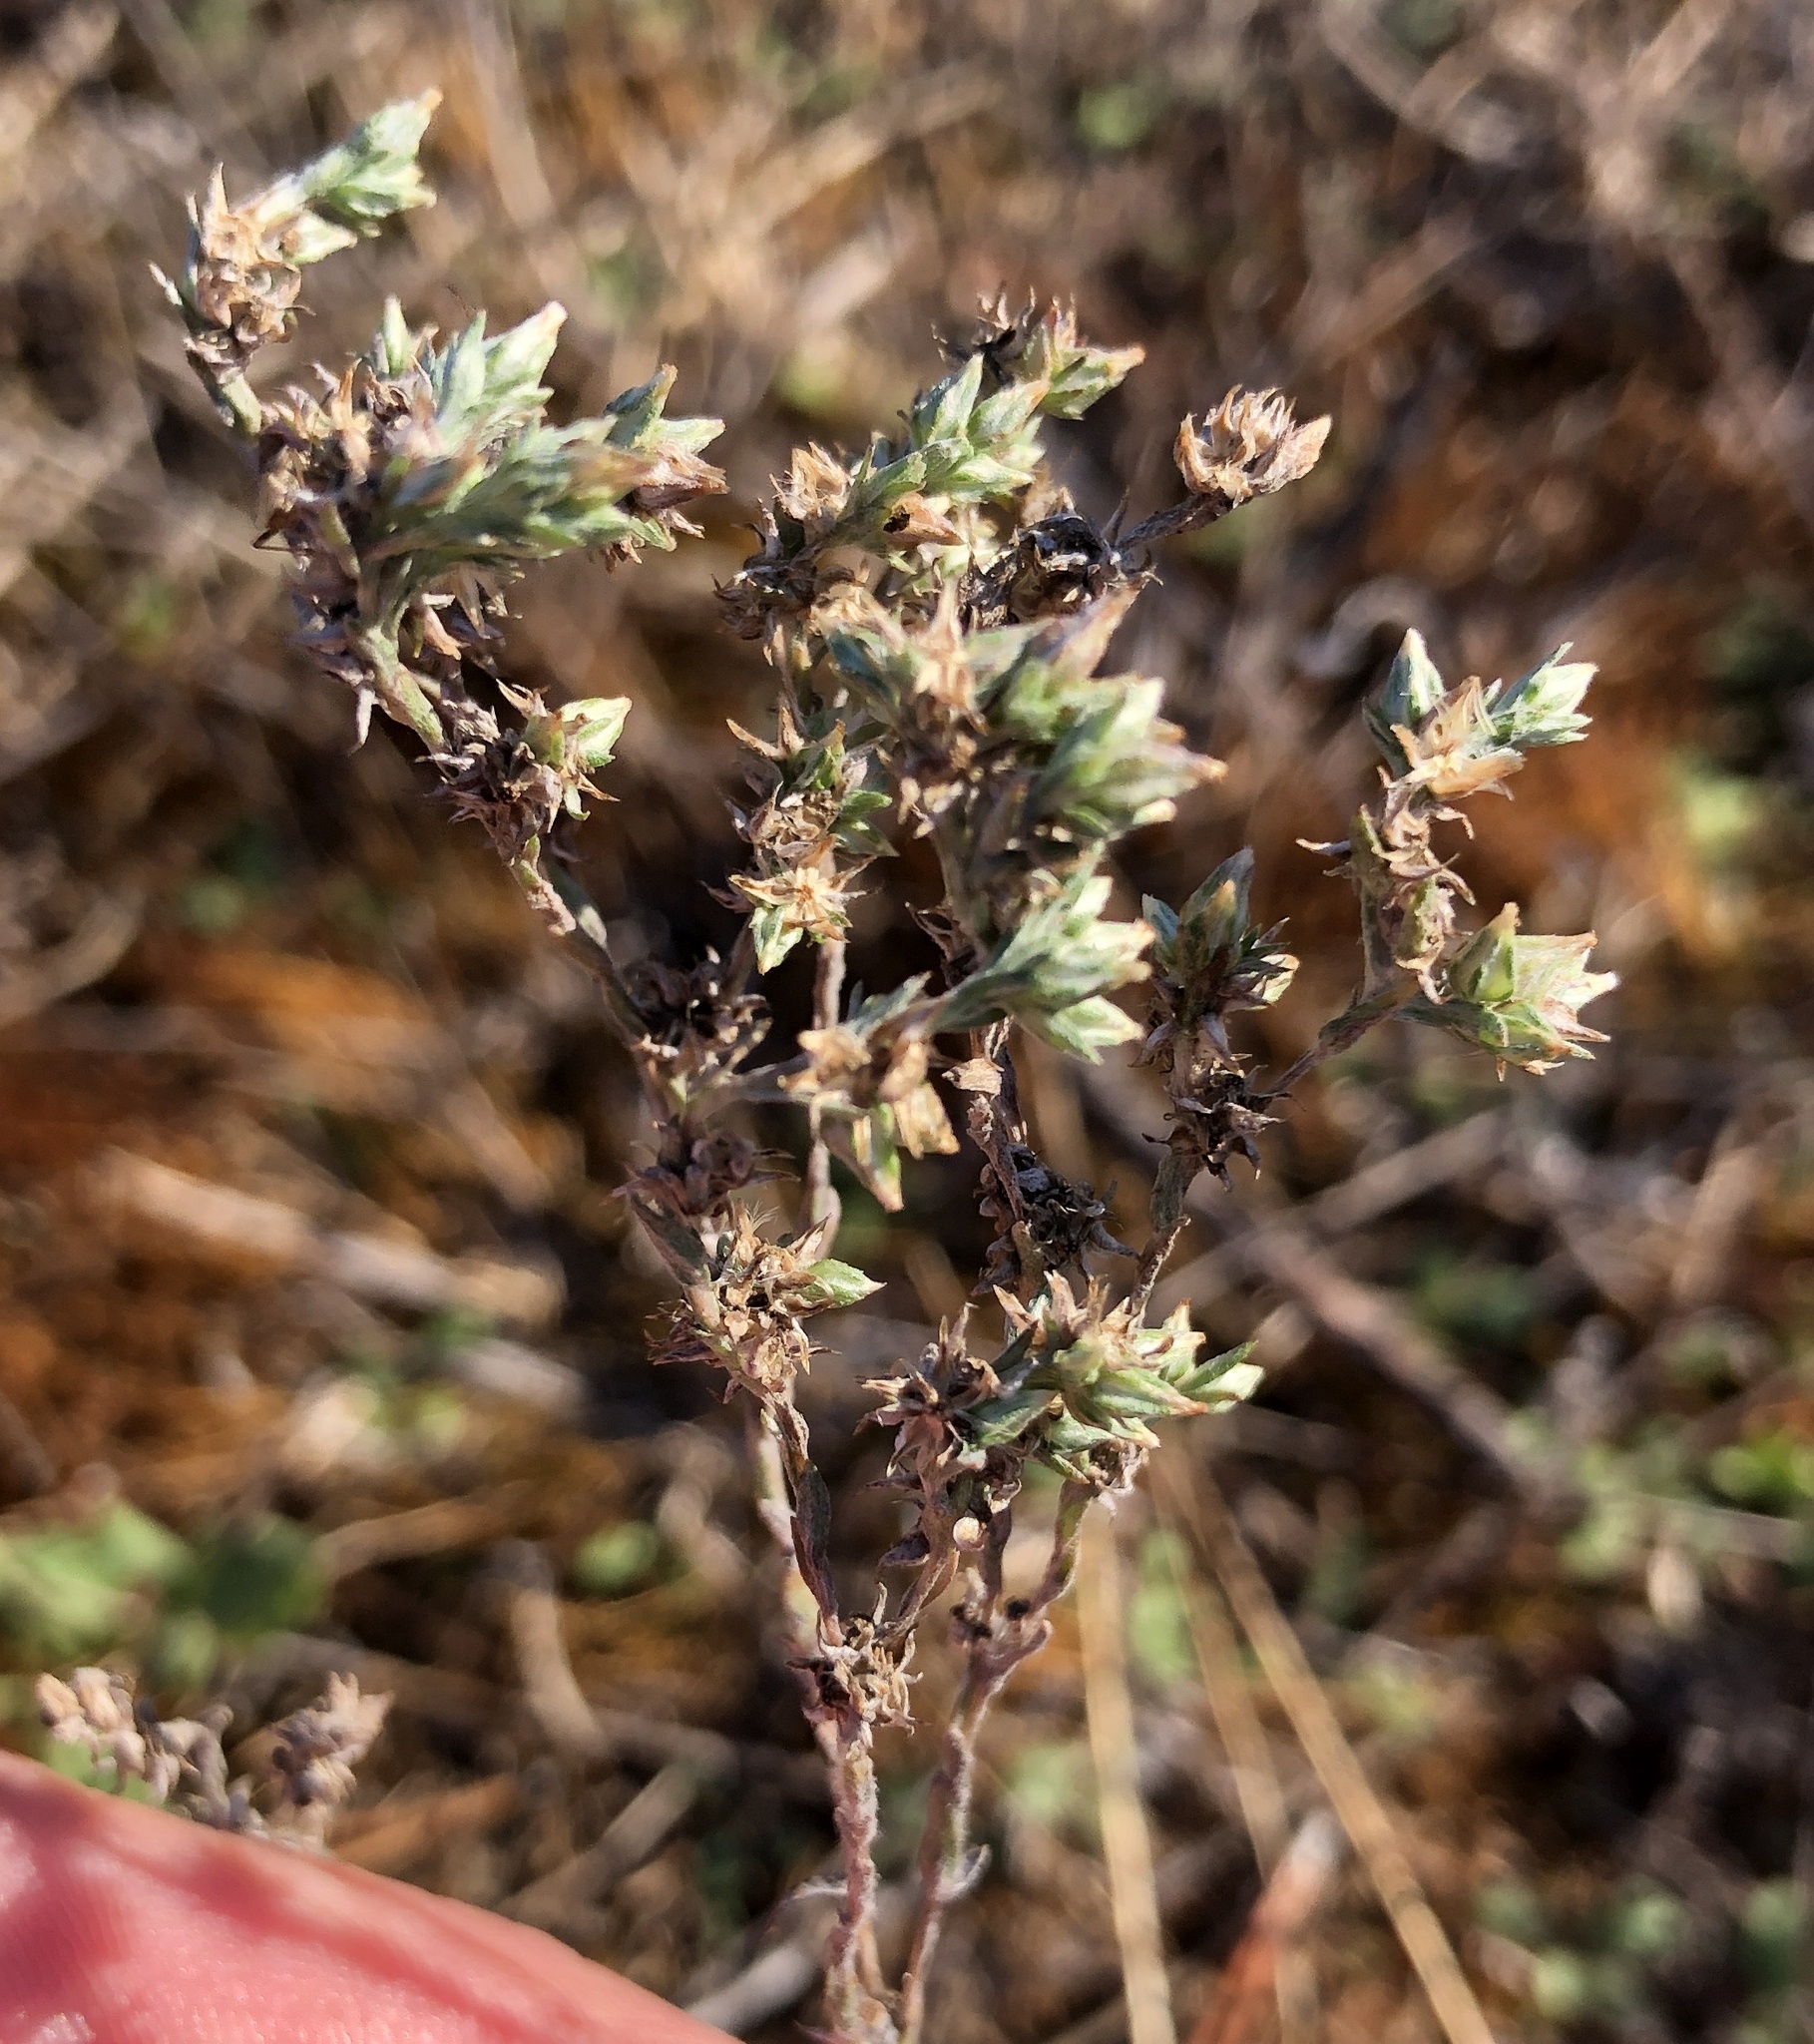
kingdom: Plantae
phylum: Tracheophyta
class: Magnoliopsida
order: Asterales
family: Asteraceae
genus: Logfia
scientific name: Logfia minima
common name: Little cottonrose
